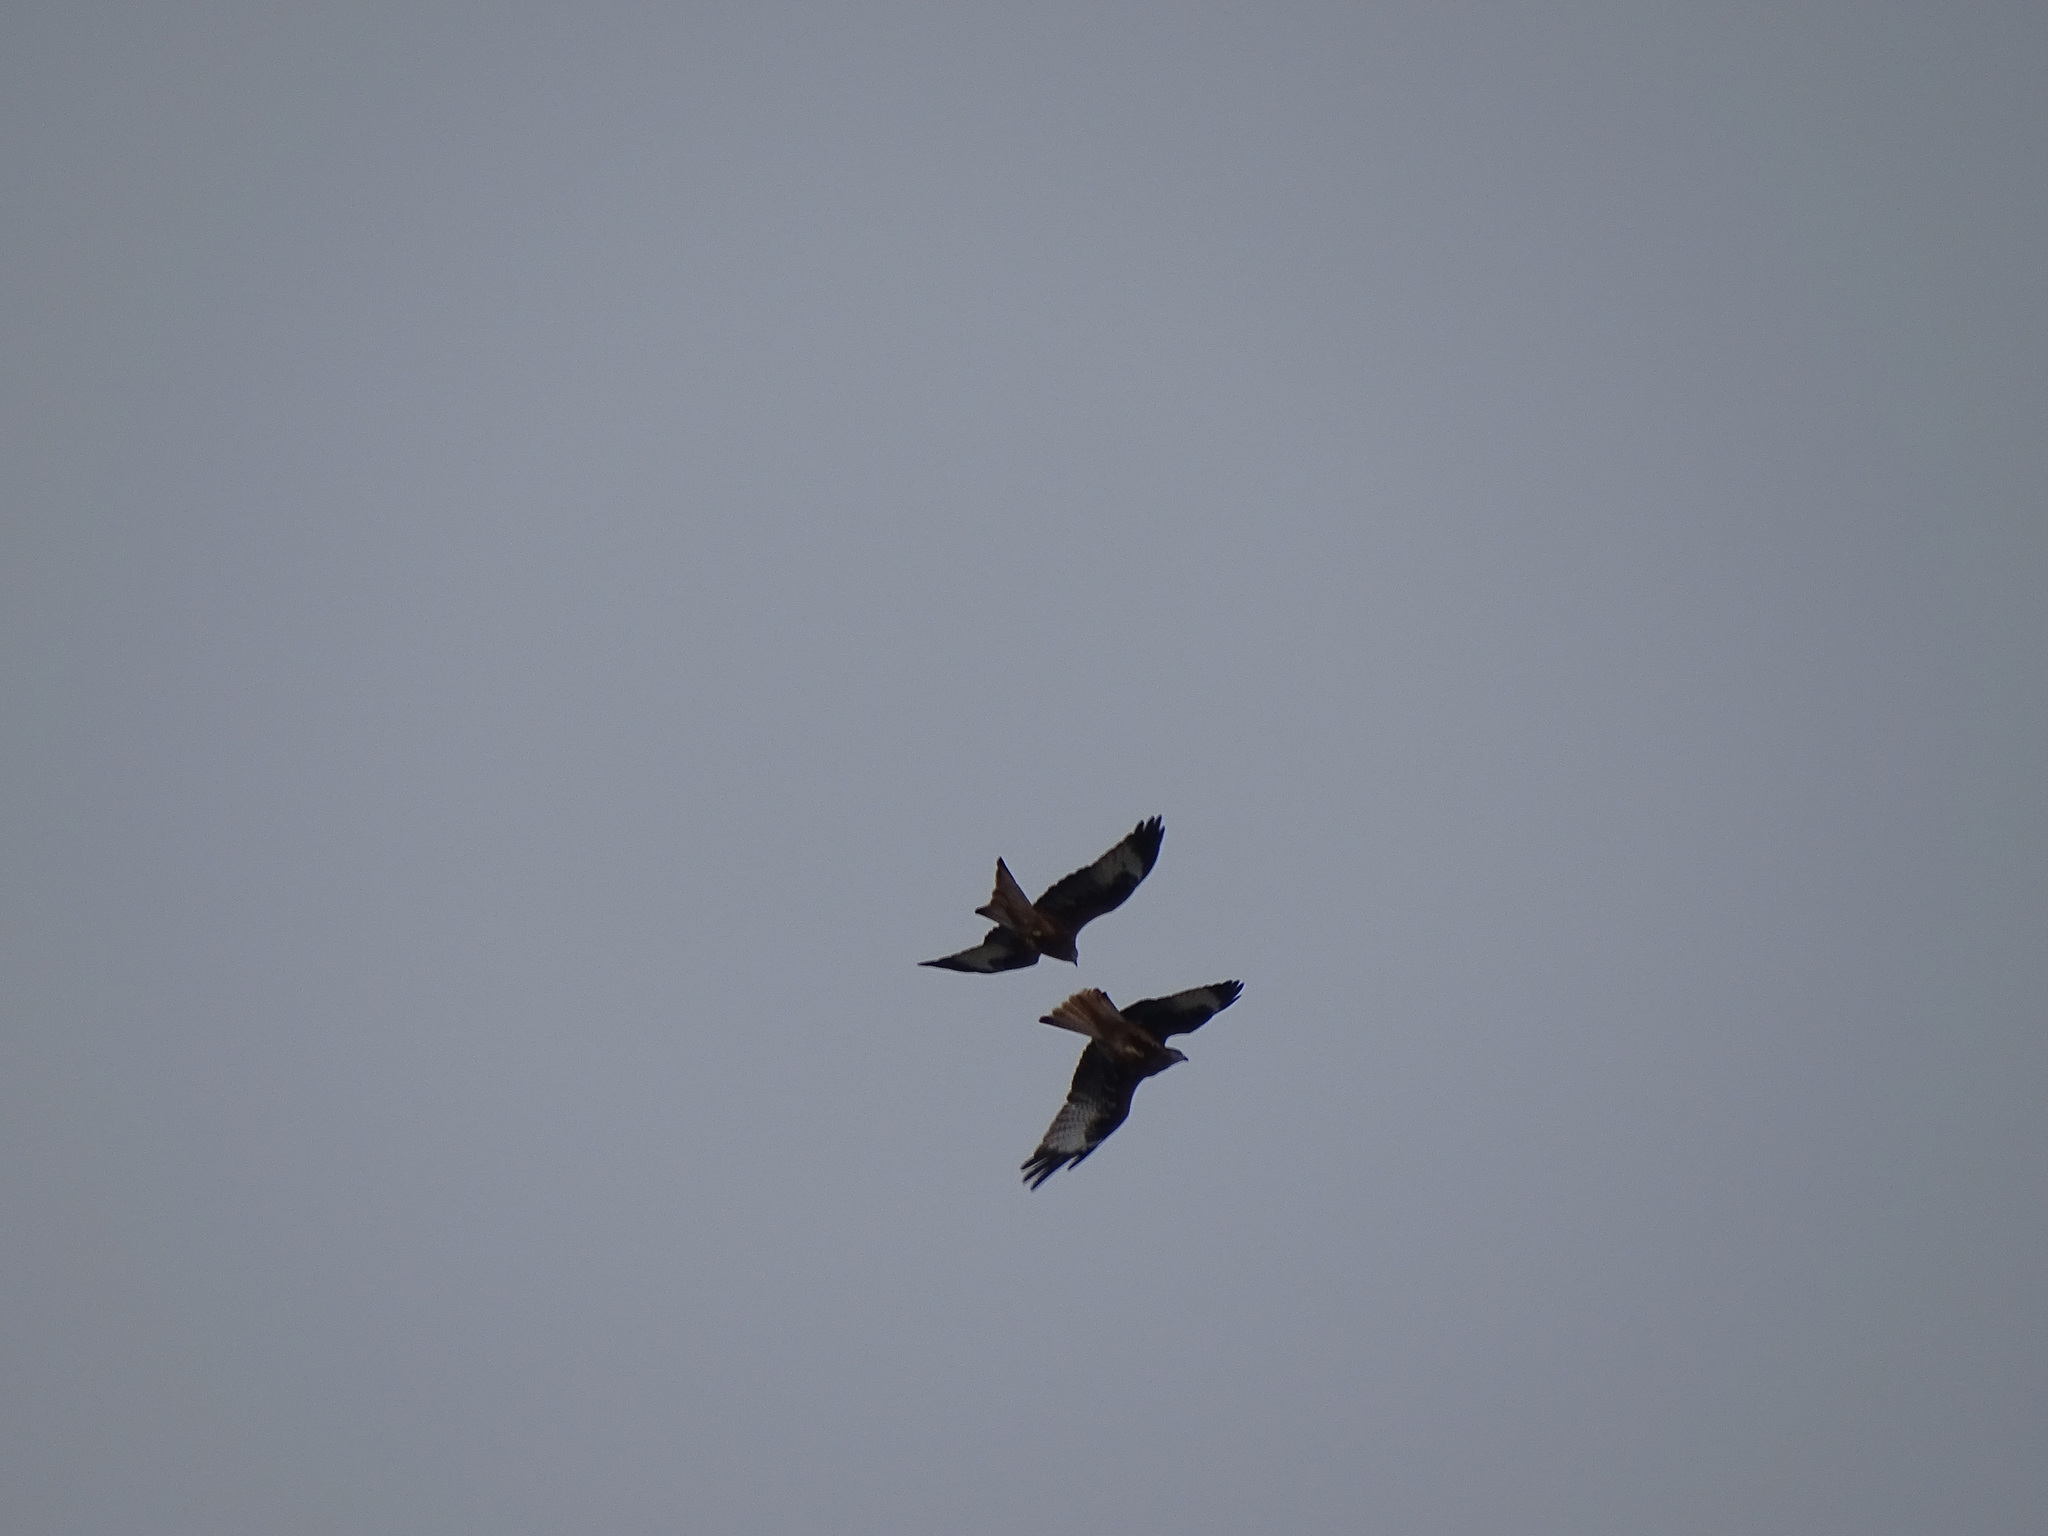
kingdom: Animalia
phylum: Chordata
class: Aves
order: Accipitriformes
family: Accipitridae
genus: Milvus
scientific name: Milvus milvus
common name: Red kite
